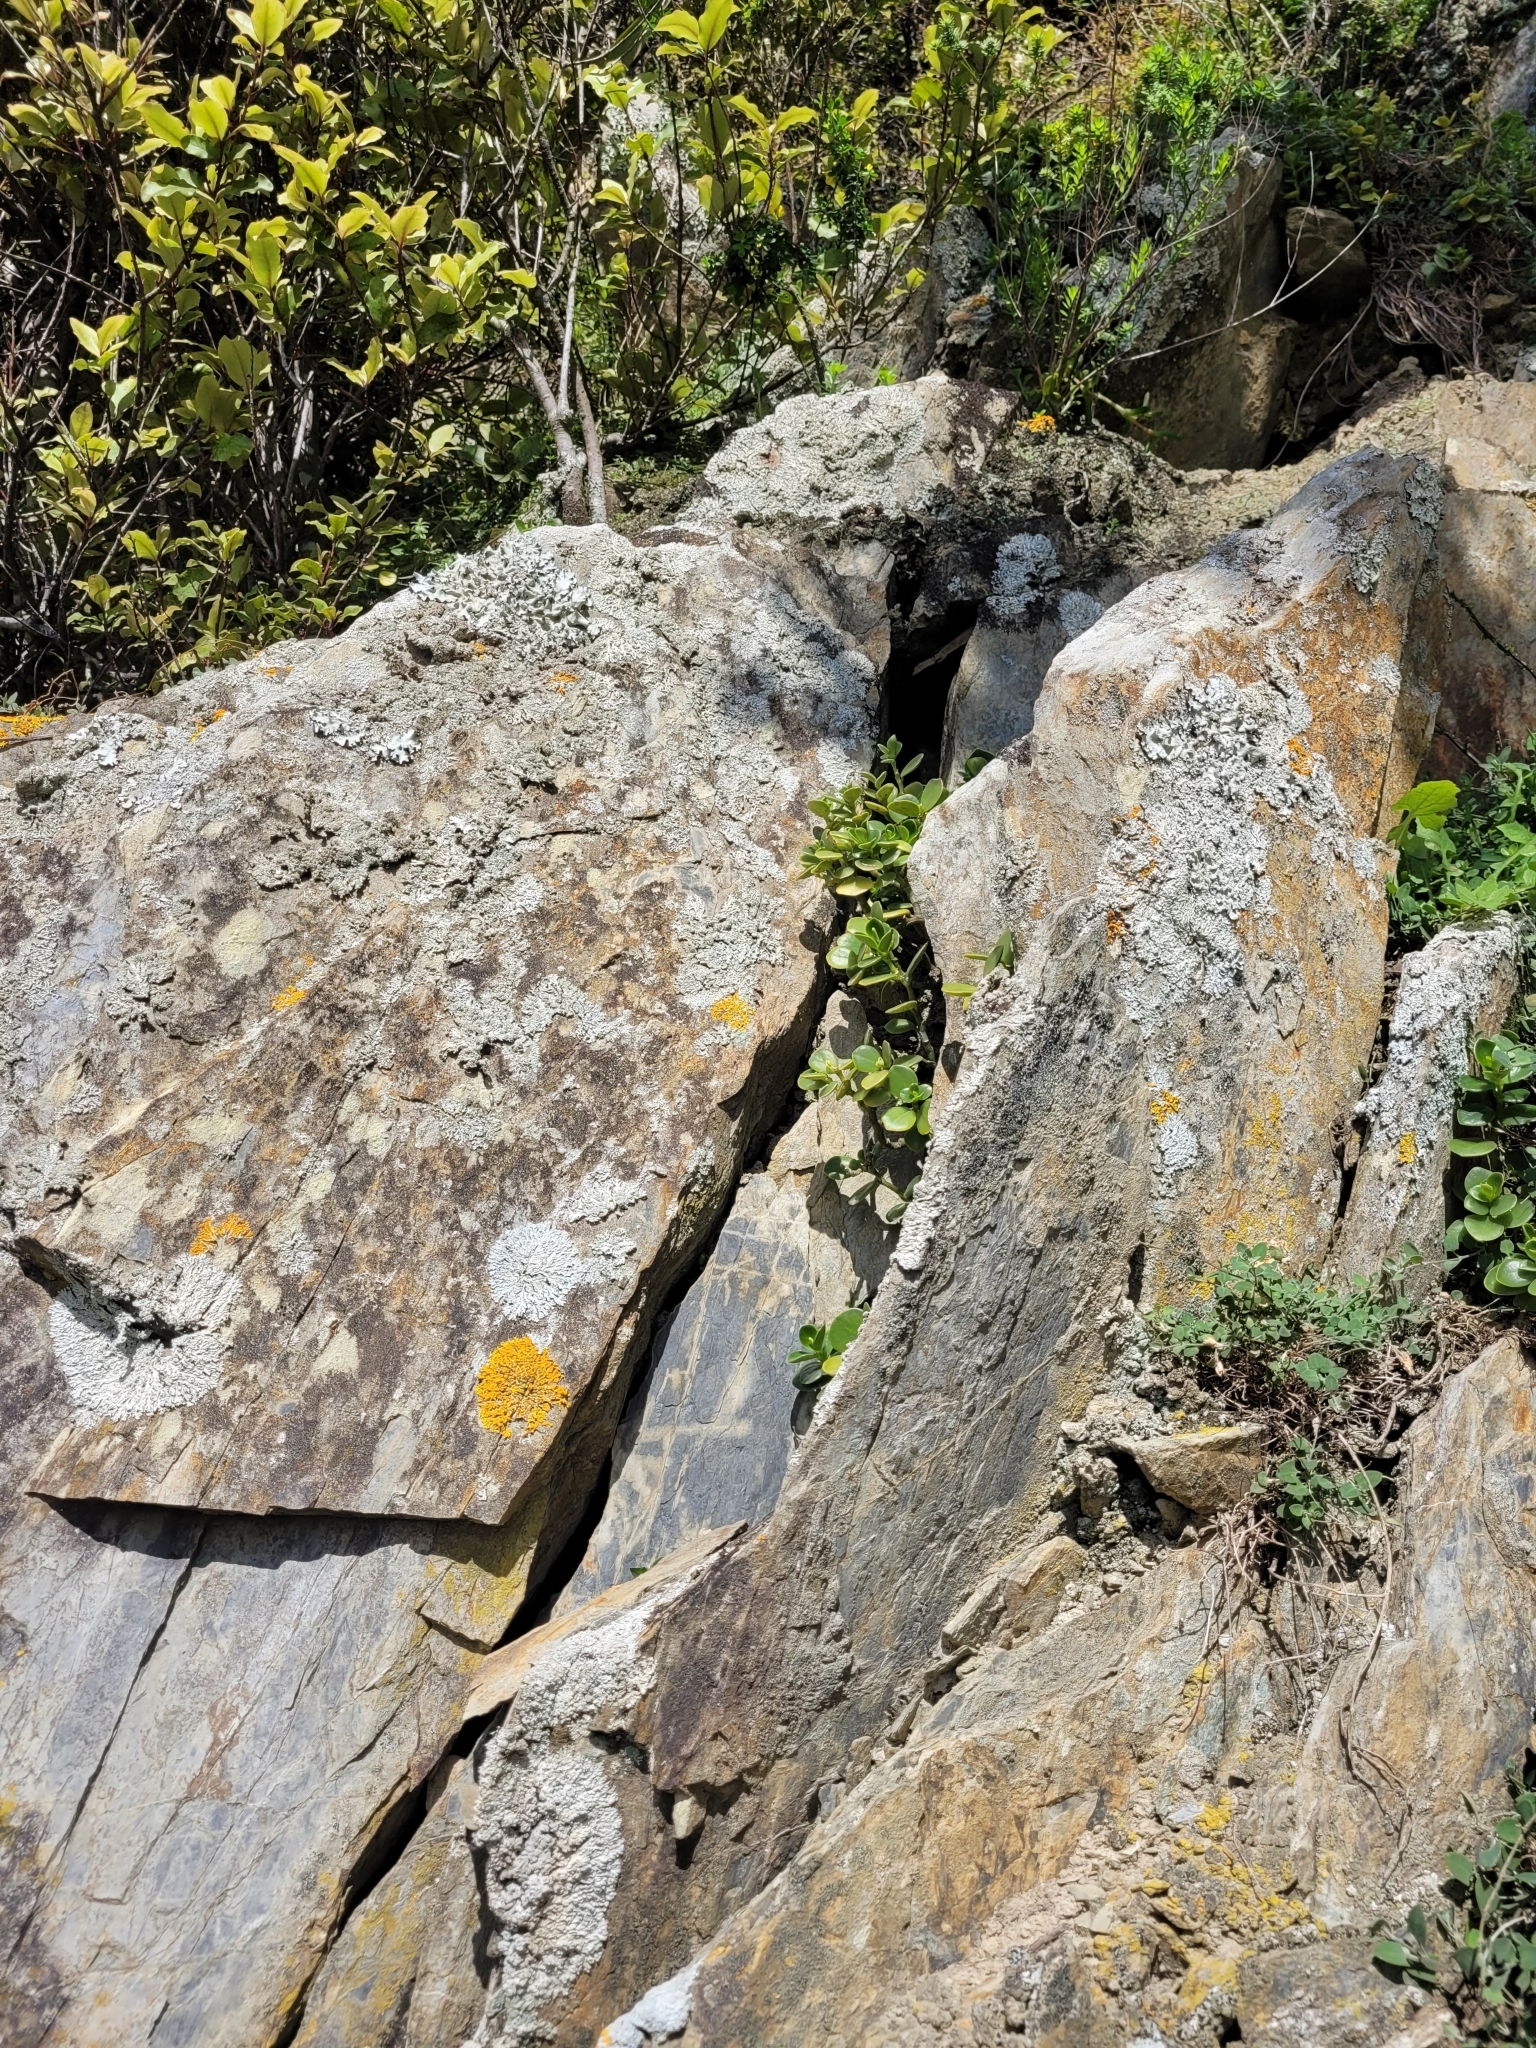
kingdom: Plantae
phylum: Tracheophyta
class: Magnoliopsida
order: Piperales
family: Piperaceae
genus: Peperomia
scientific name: Peperomia urvilleana
